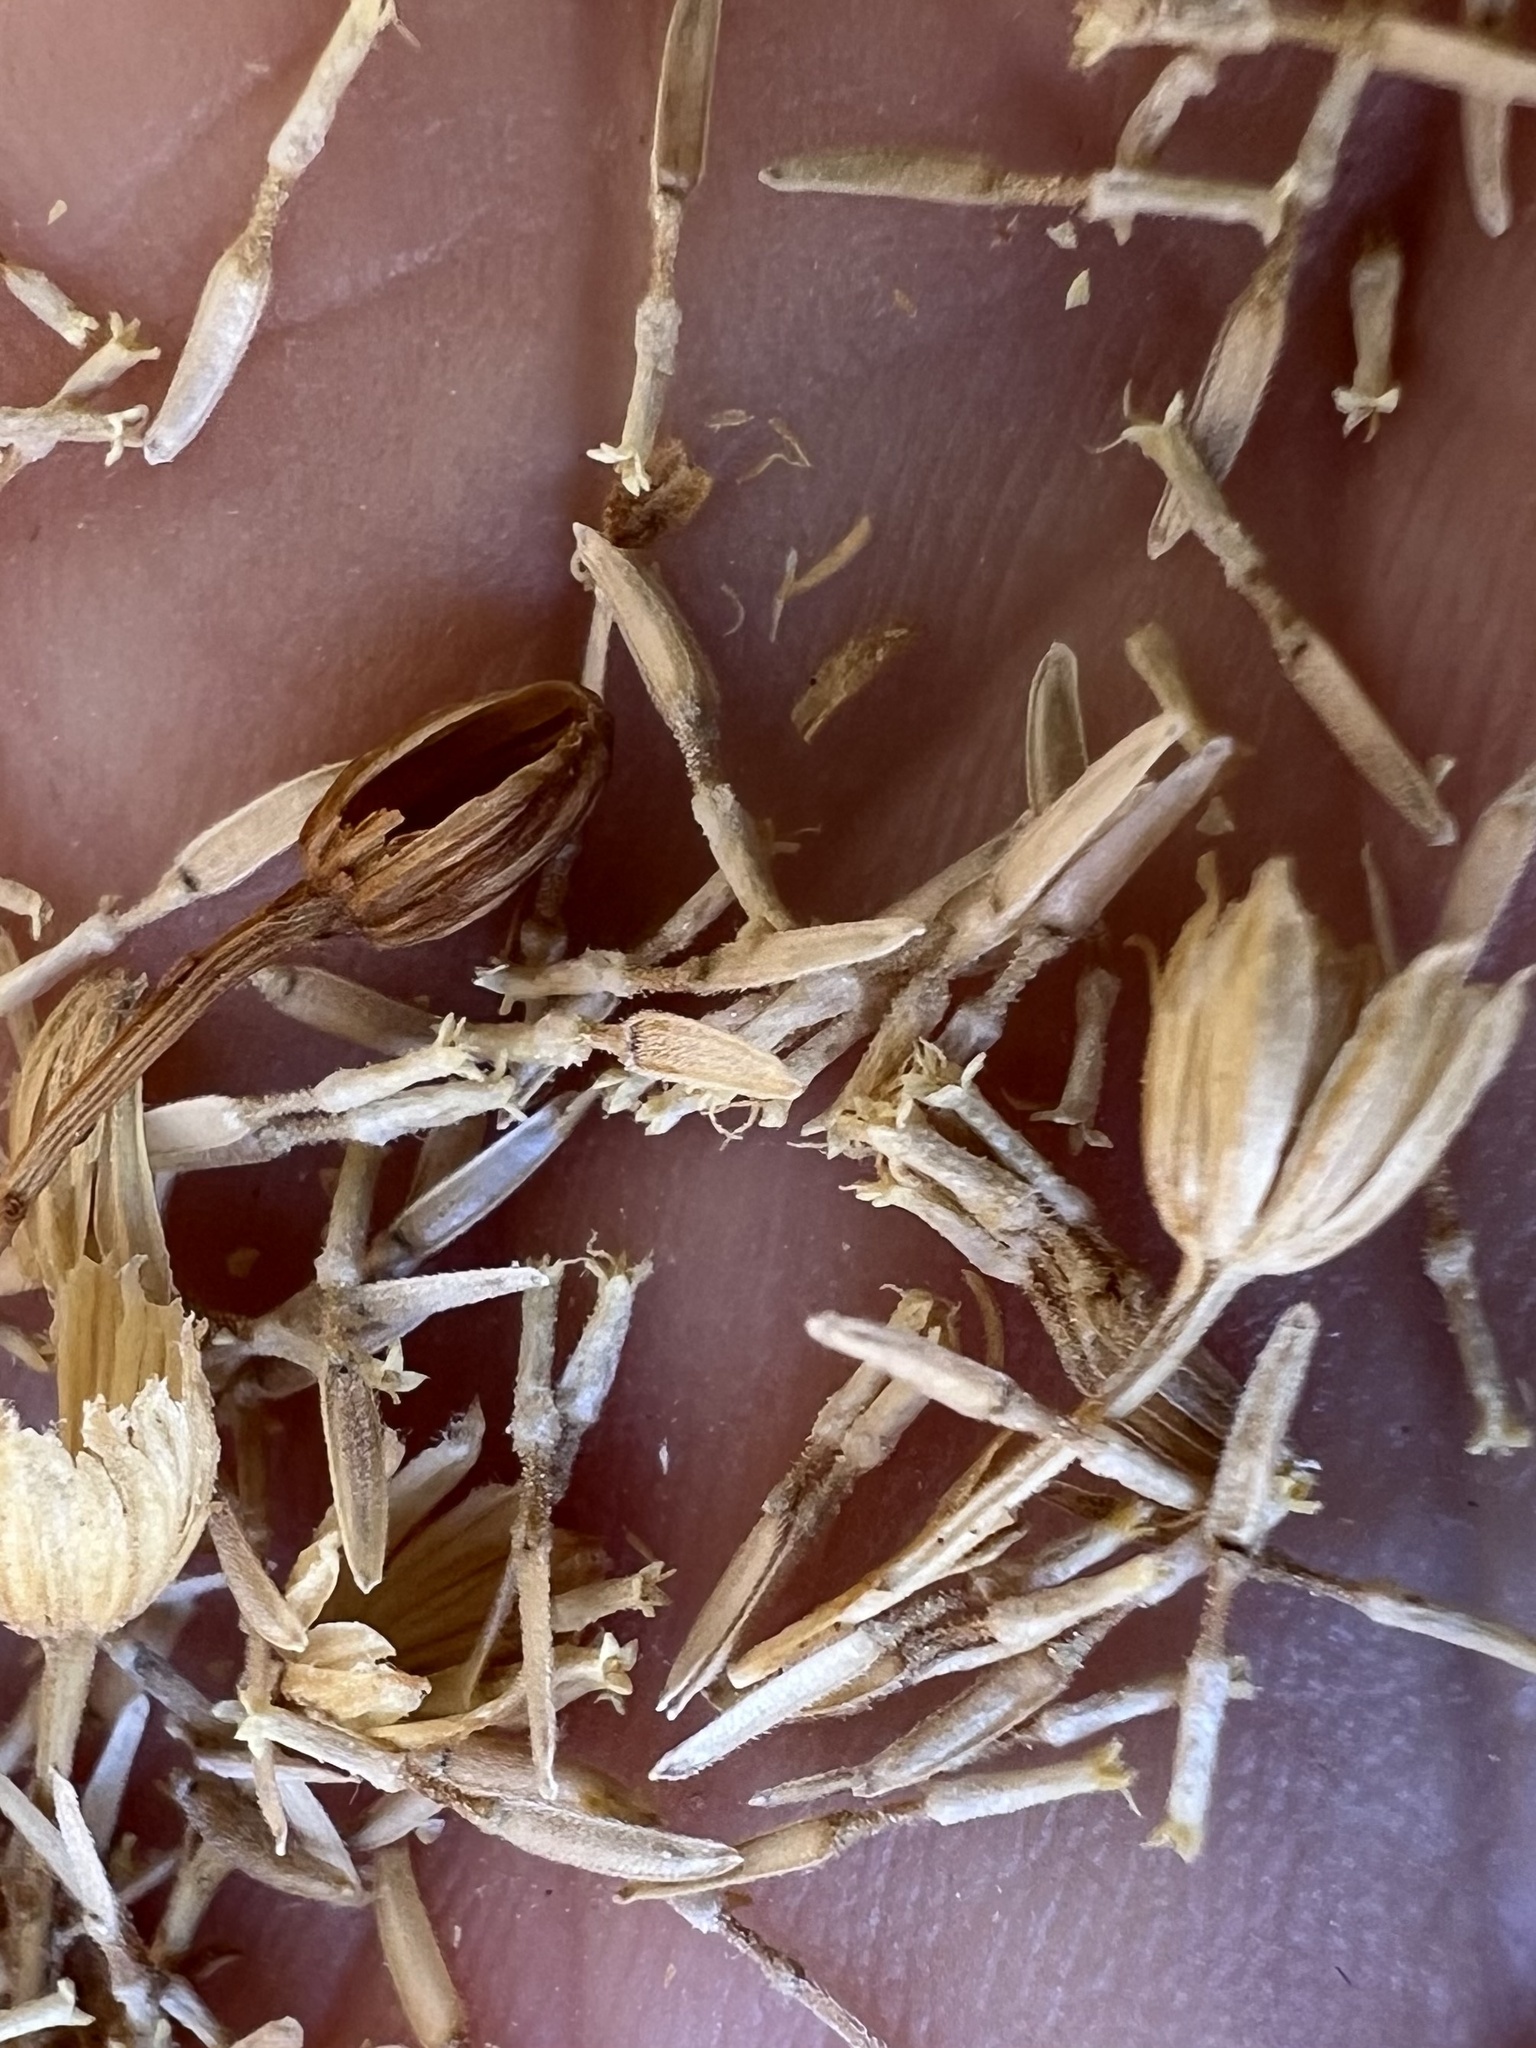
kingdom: Plantae
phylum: Tracheophyta
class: Magnoliopsida
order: Asterales
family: Asteraceae
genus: Laphamia
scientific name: Laphamia megalocephala
